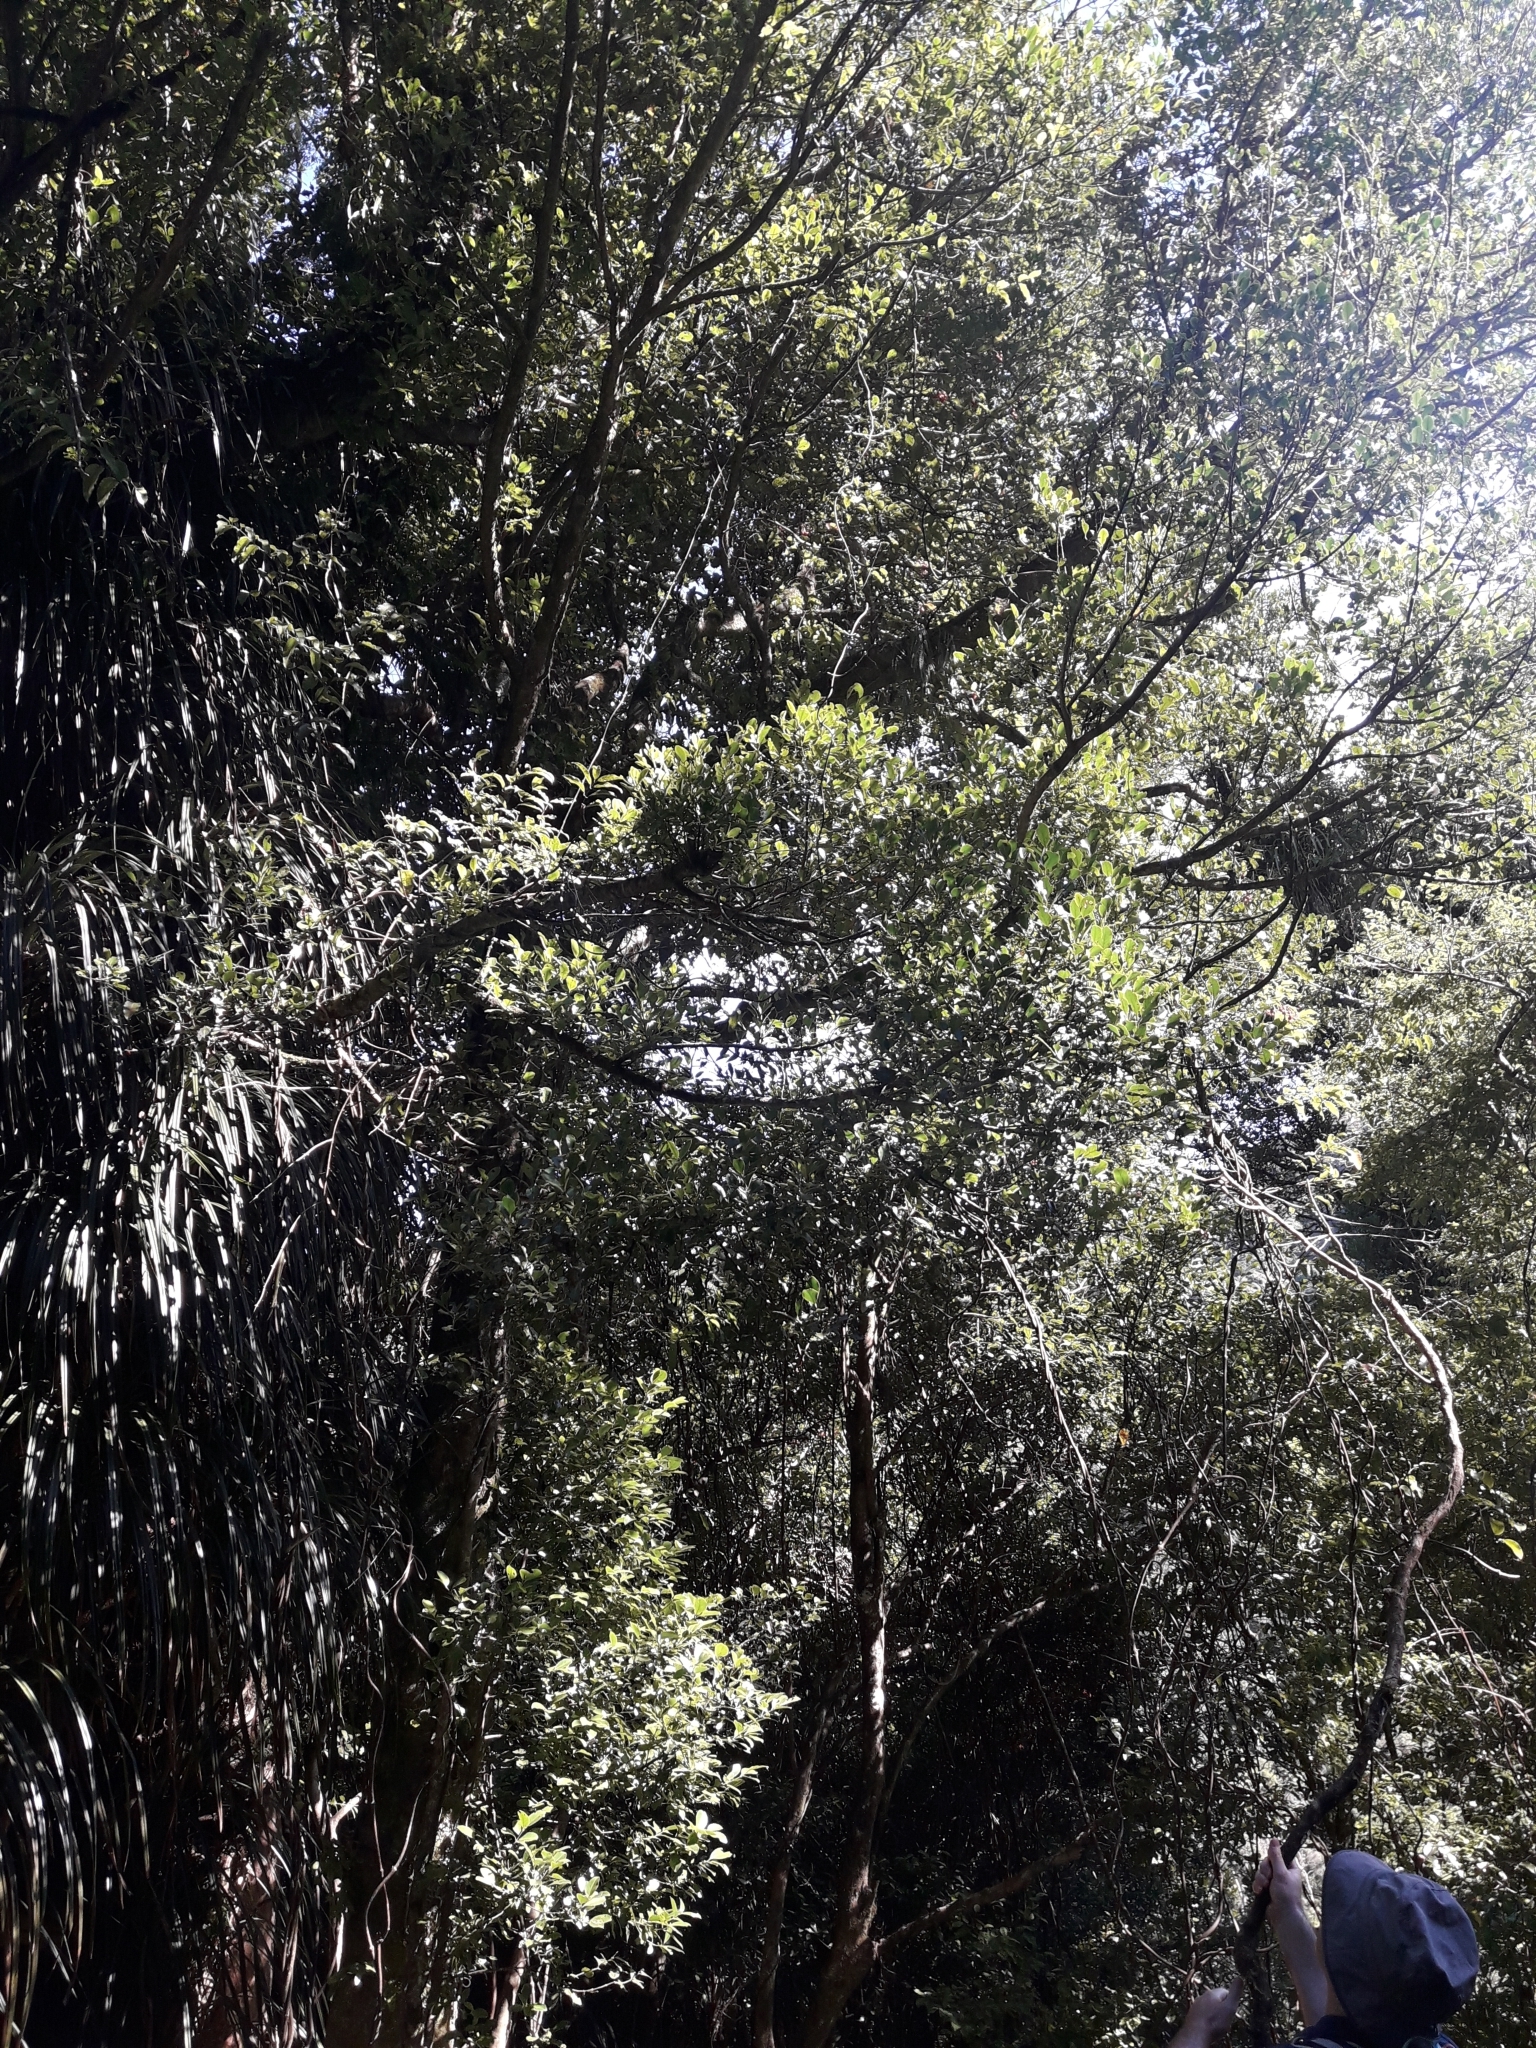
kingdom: Plantae
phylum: Tracheophyta
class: Magnoliopsida
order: Laurales
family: Atherospermataceae
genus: Laurelia
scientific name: Laurelia novae-zelandiae
